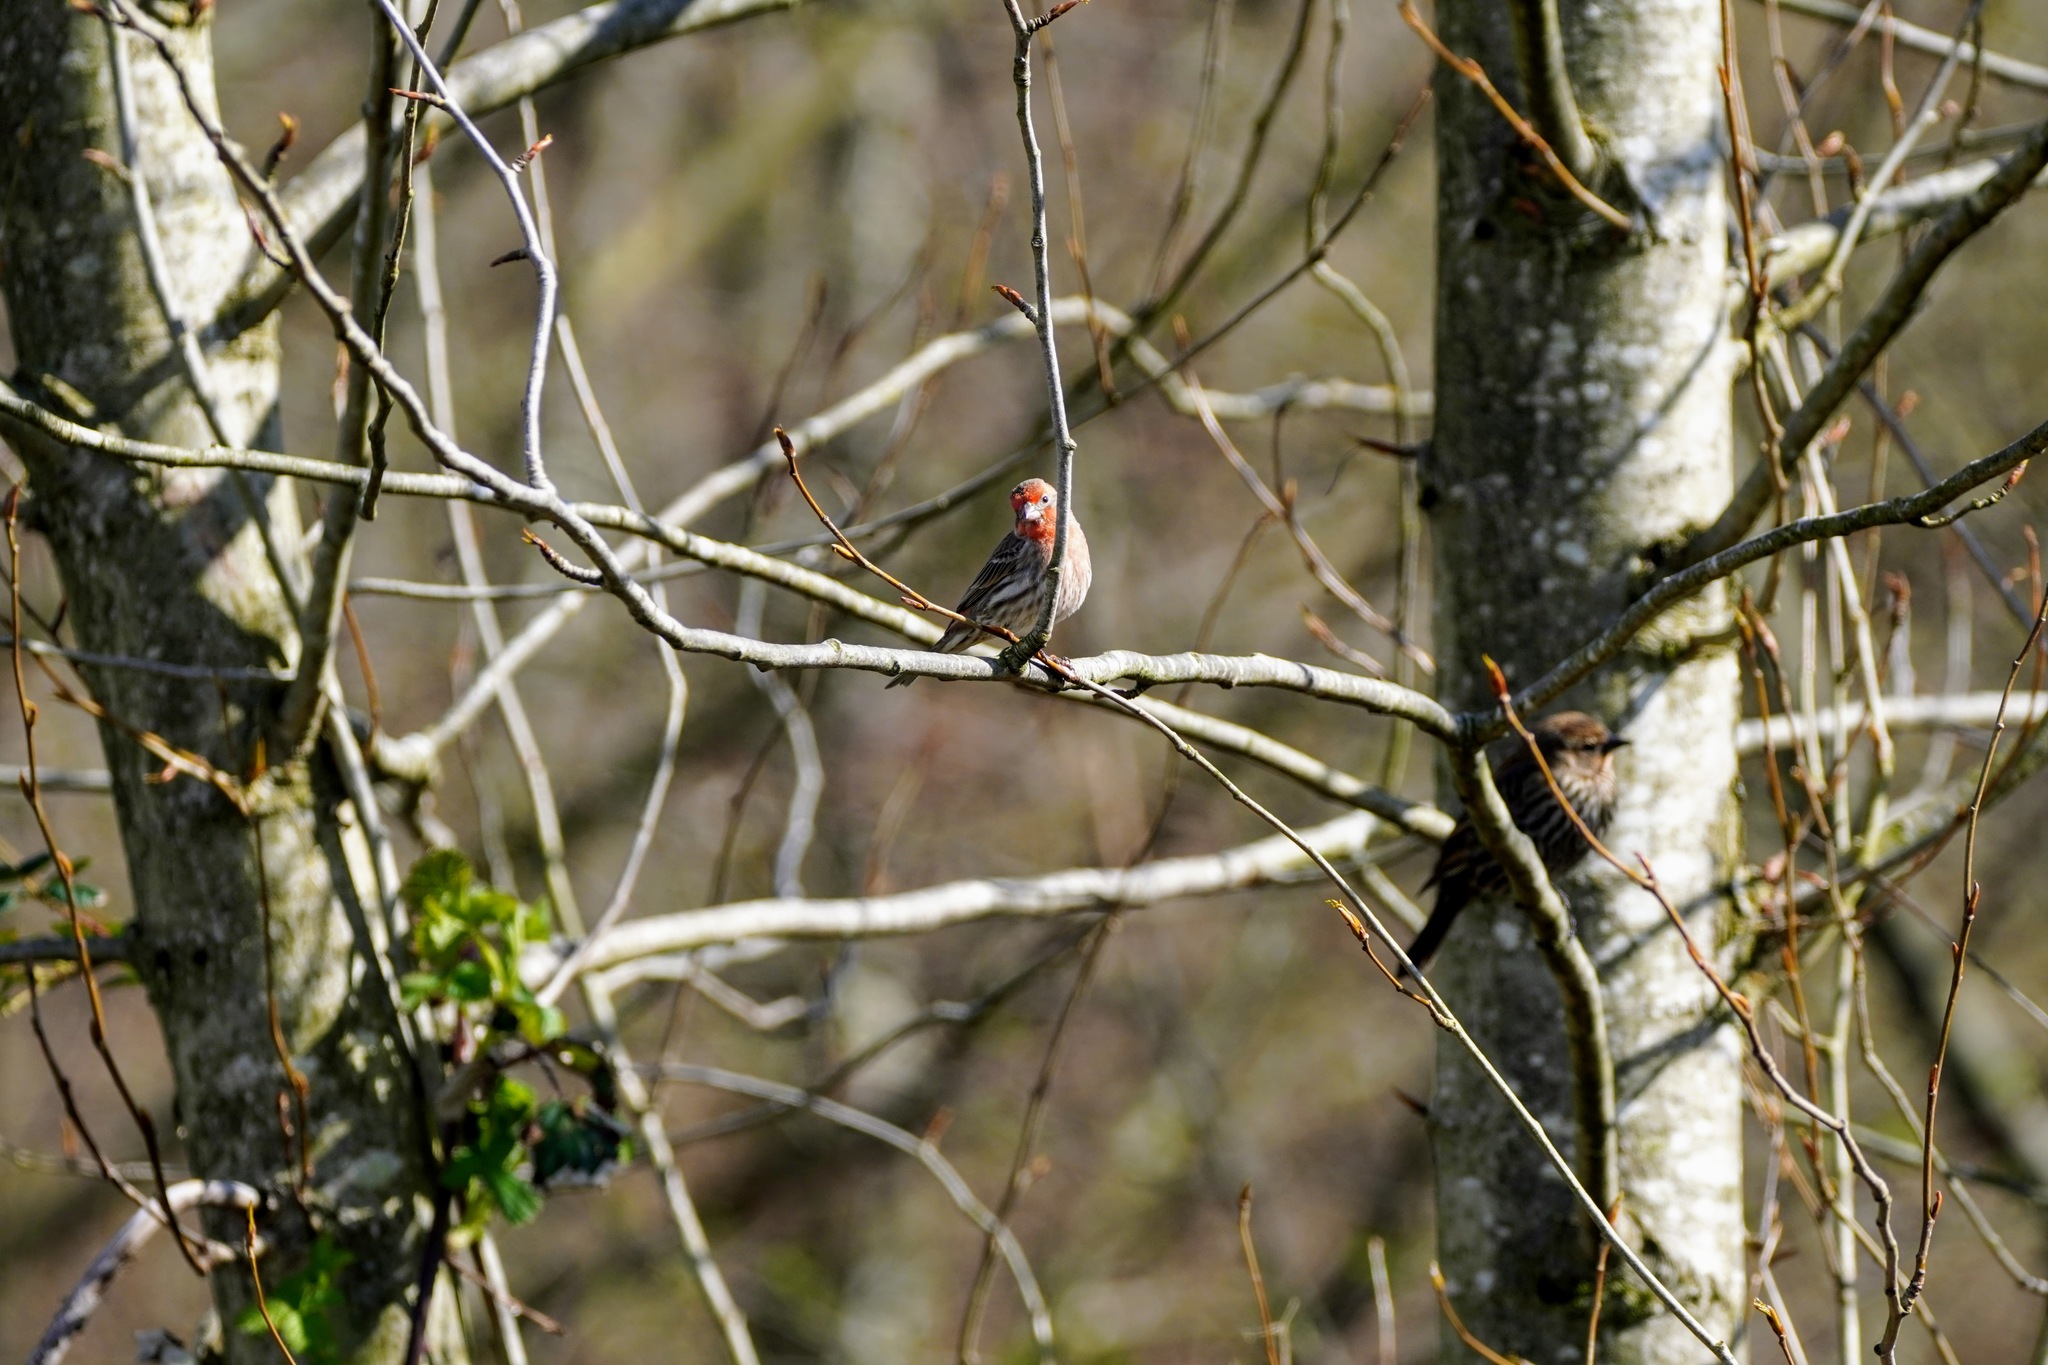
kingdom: Animalia
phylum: Chordata
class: Aves
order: Passeriformes
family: Fringillidae
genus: Haemorhous
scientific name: Haemorhous mexicanus
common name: House finch
